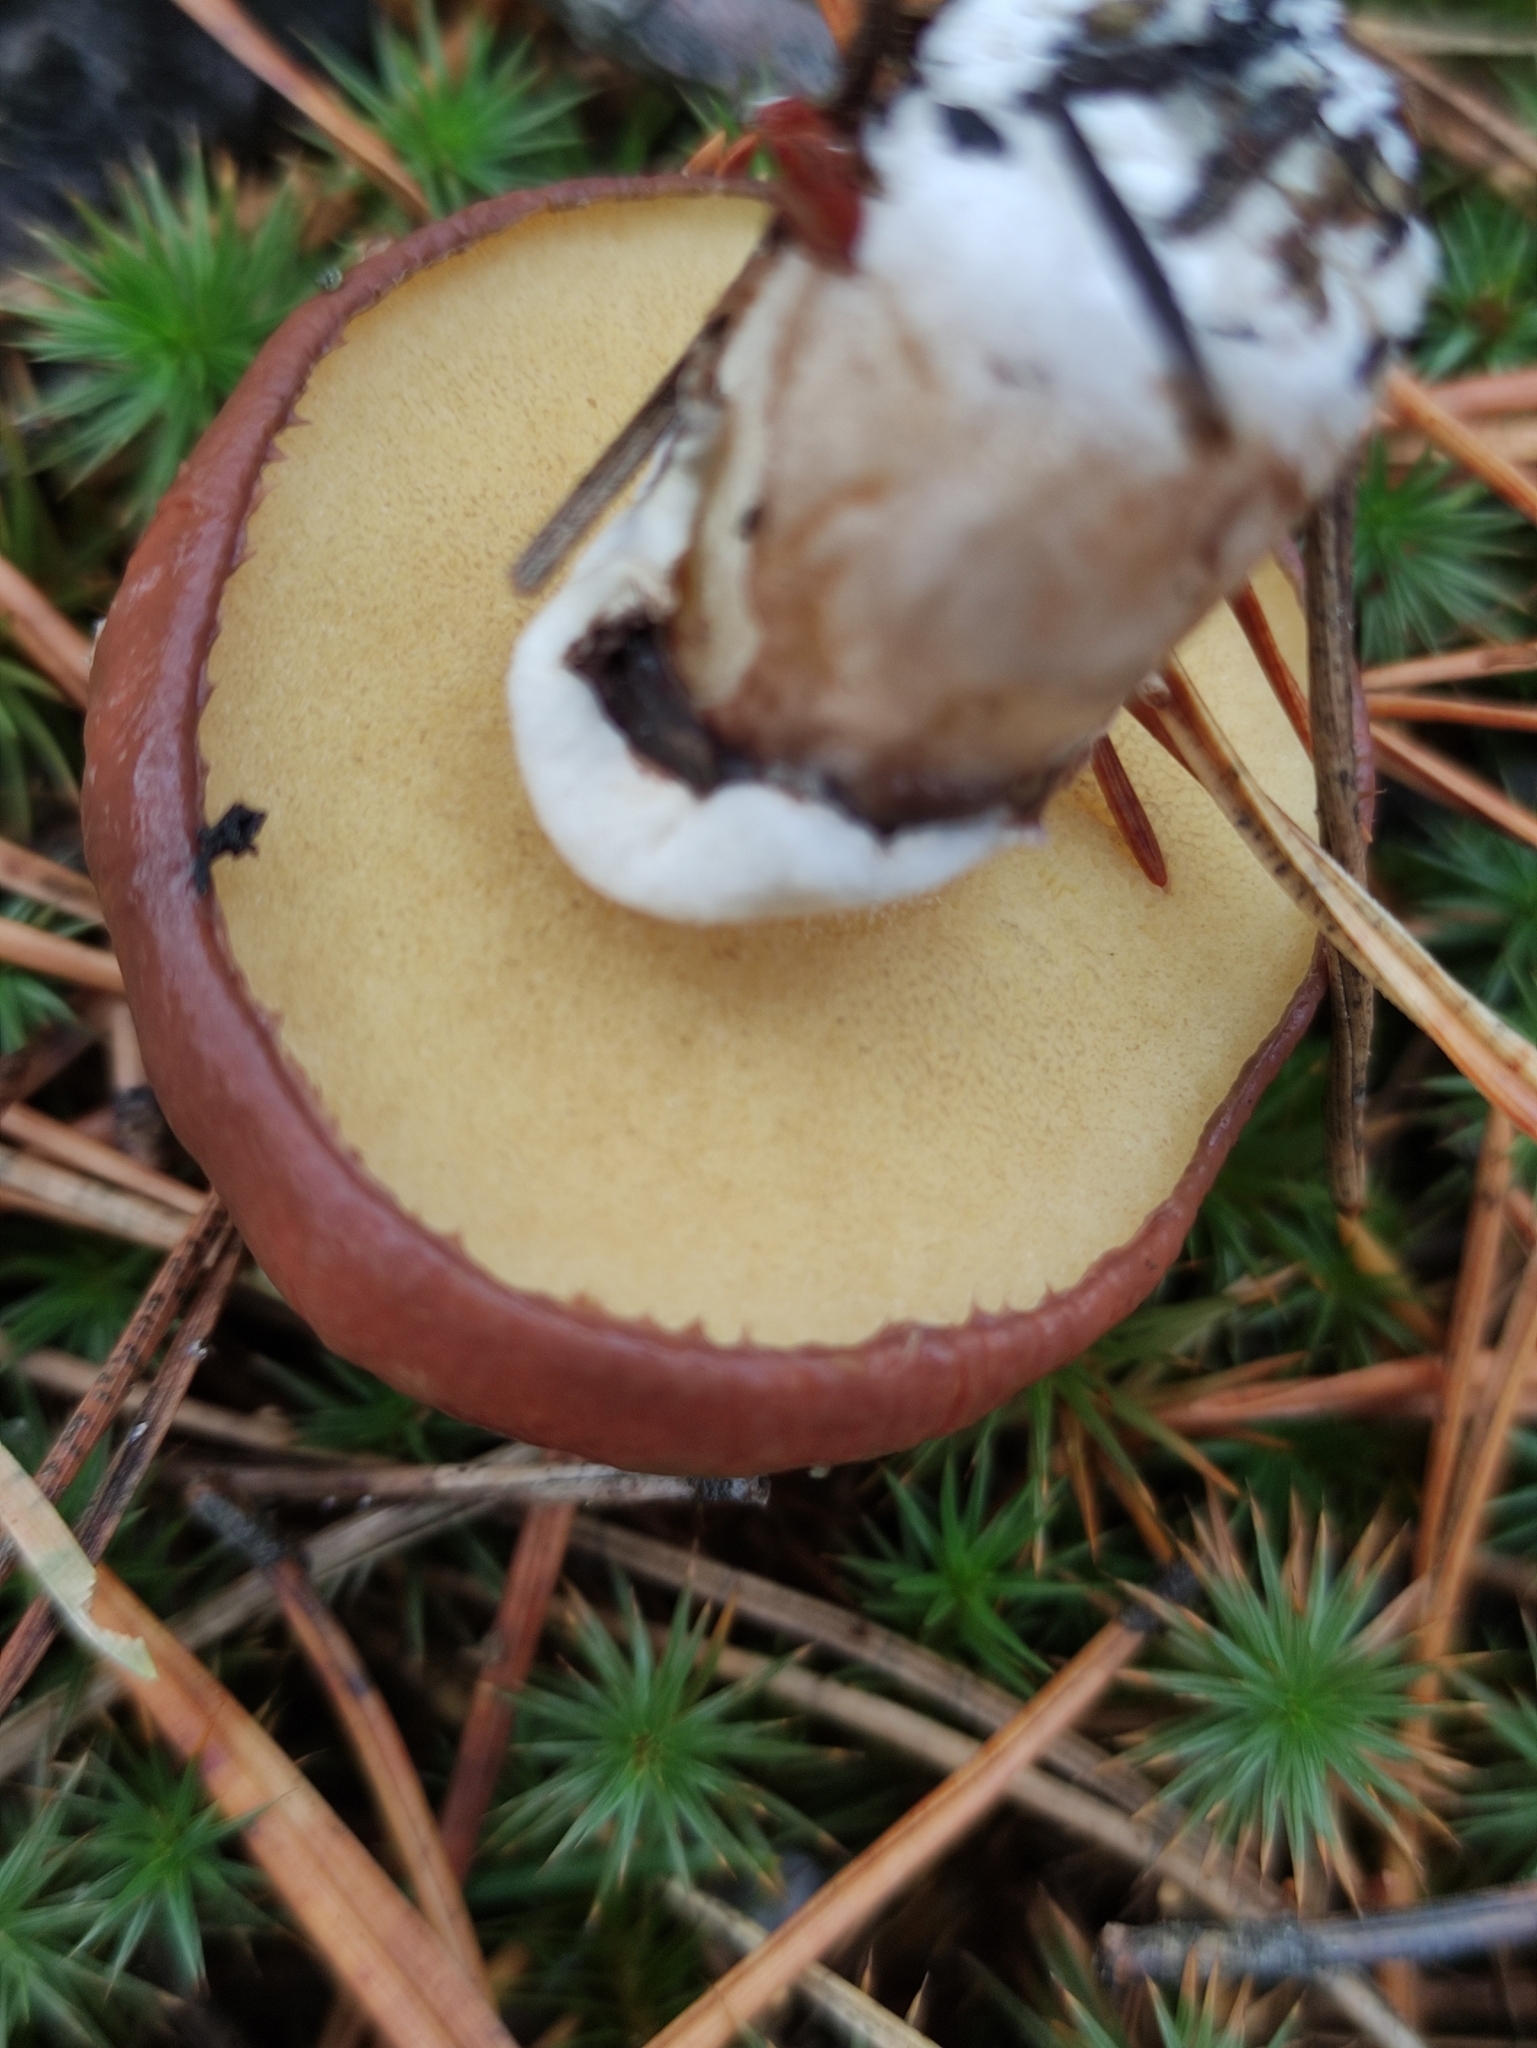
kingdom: Fungi
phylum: Basidiomycota
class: Agaricomycetes
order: Boletales
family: Suillaceae
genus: Suillus
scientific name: Suillus luteus
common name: Slippery jack
